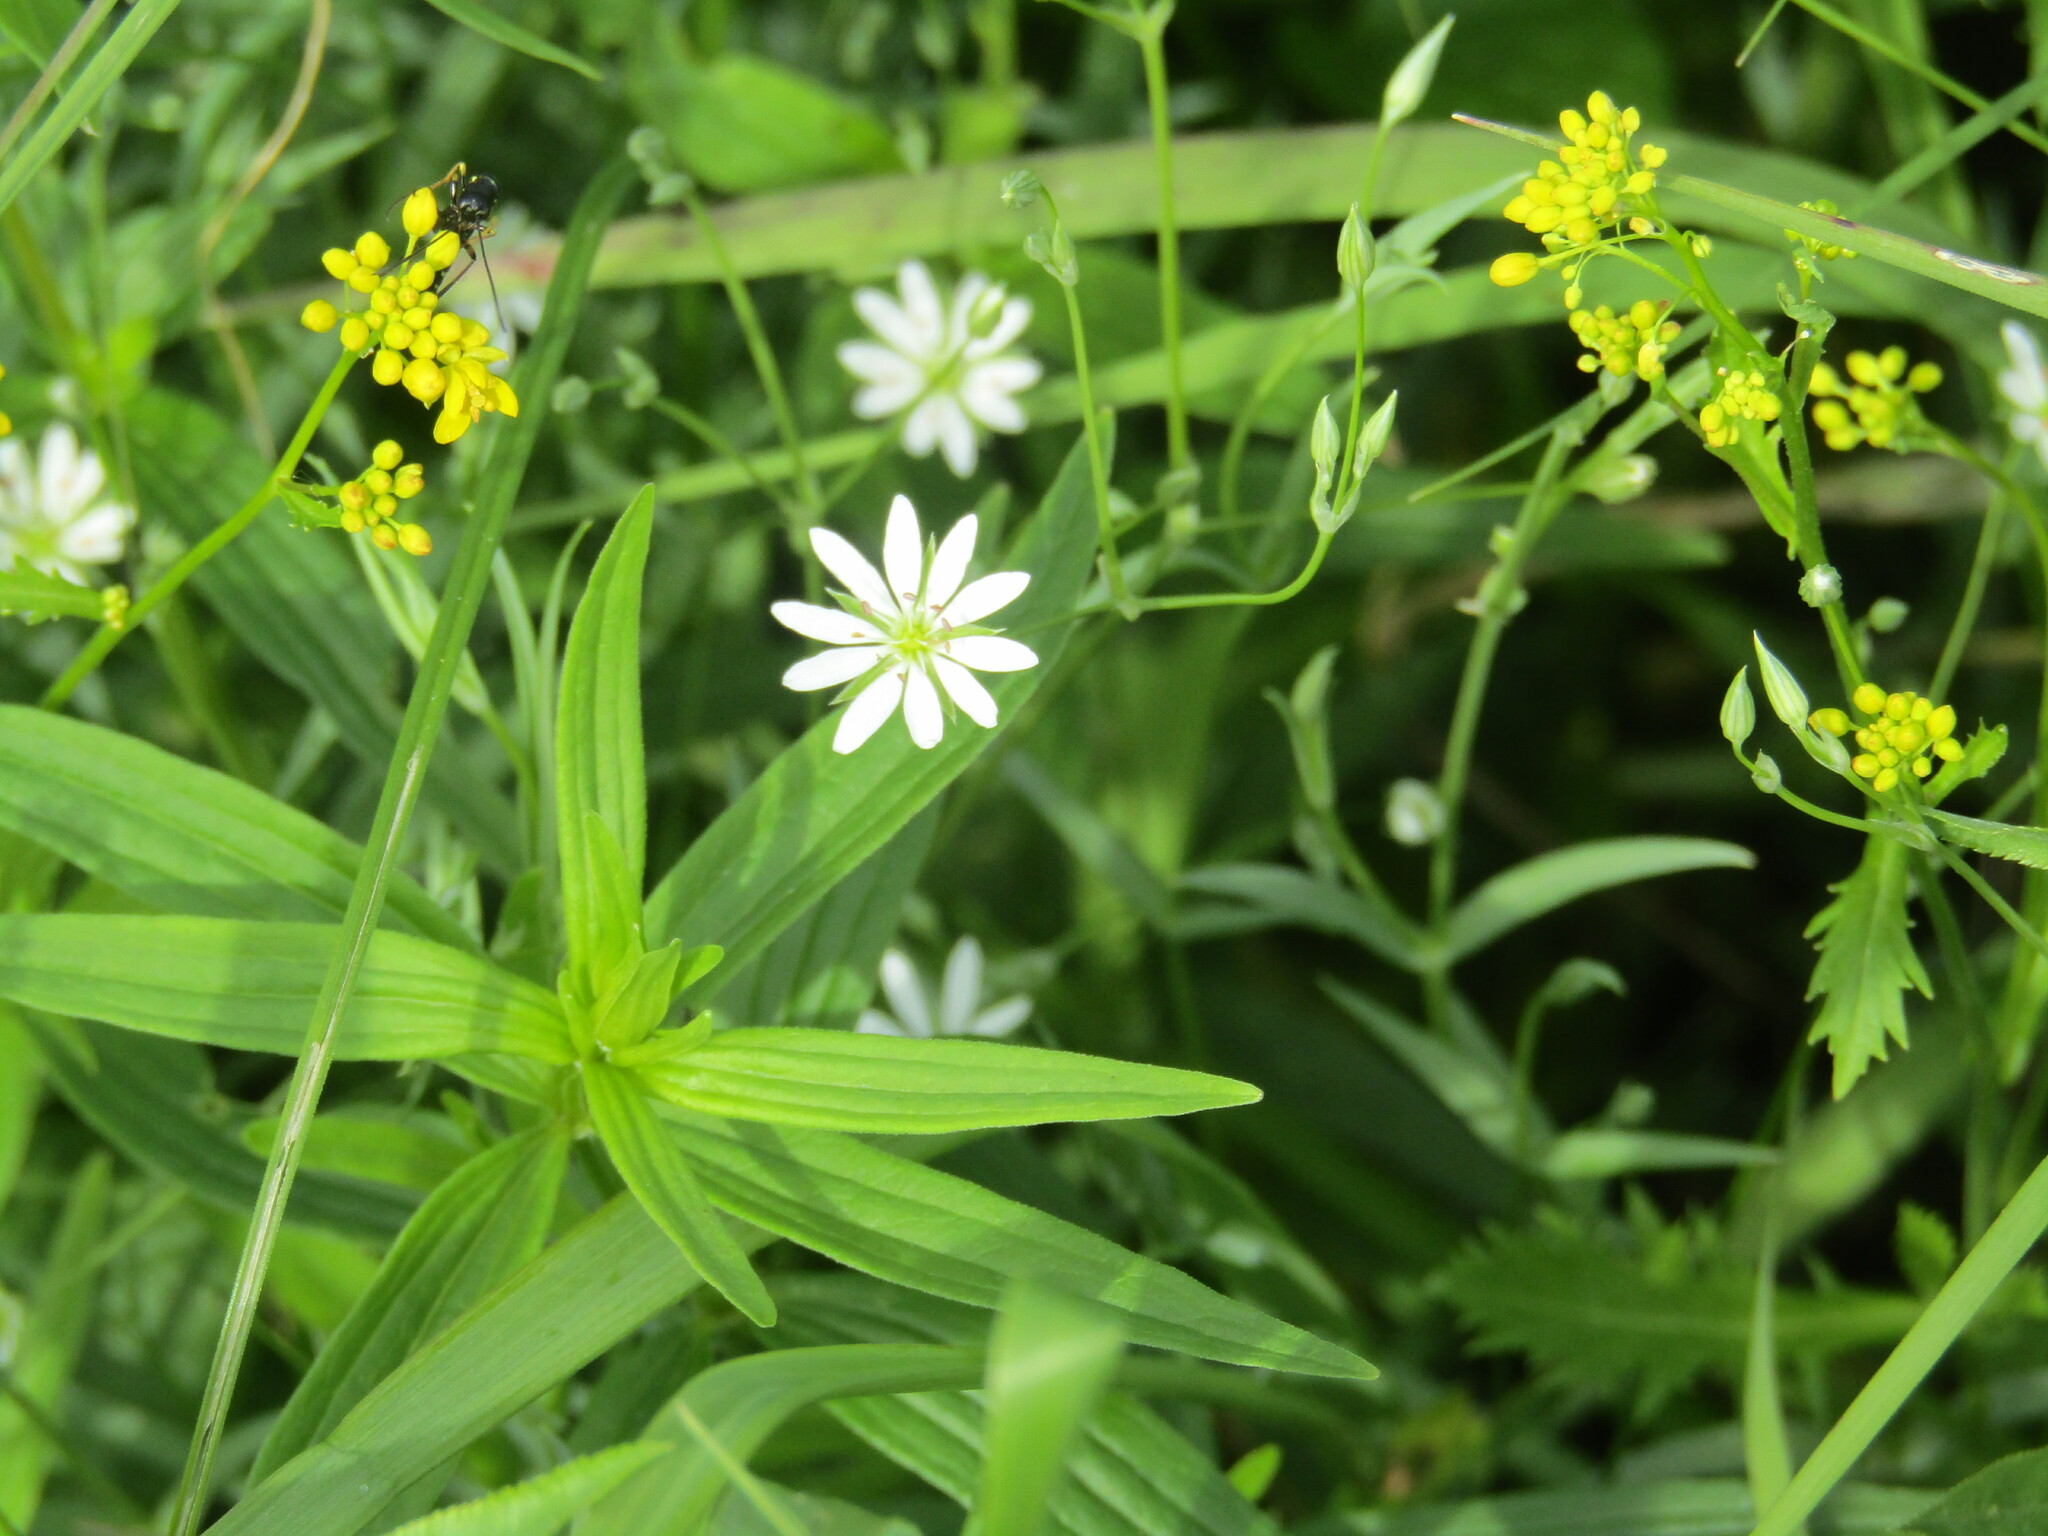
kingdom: Plantae
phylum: Tracheophyta
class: Magnoliopsida
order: Caryophyllales
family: Caryophyllaceae
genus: Stellaria
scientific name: Stellaria graminea
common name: Grass-like starwort
